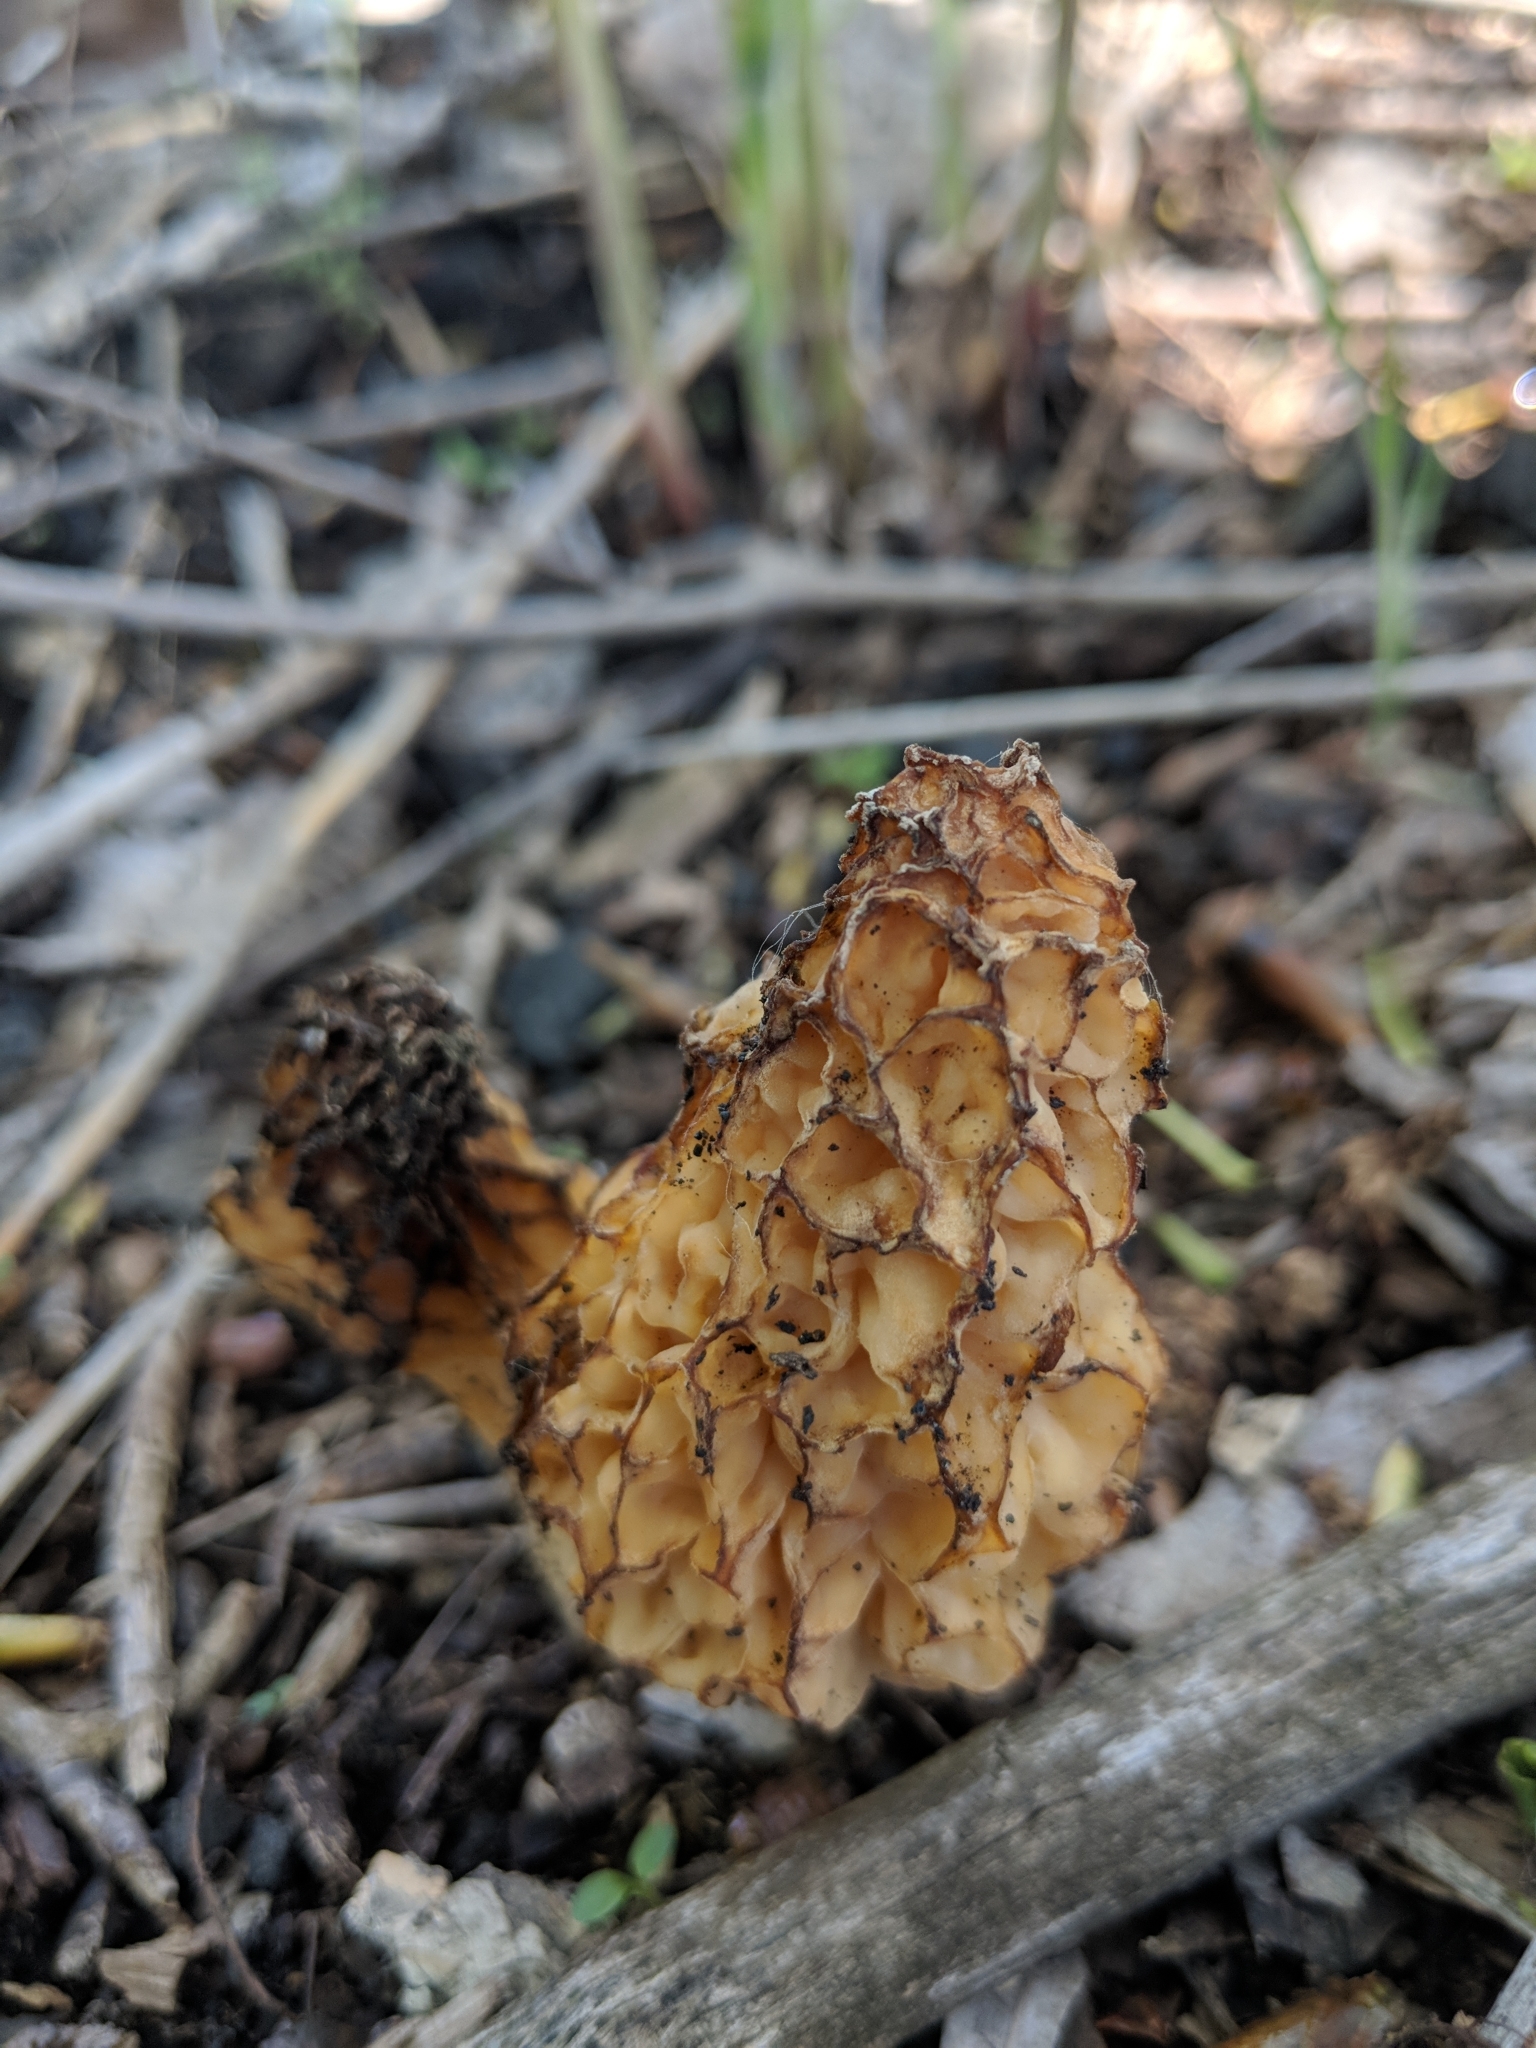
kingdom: Fungi
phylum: Ascomycota
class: Pezizomycetes
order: Pezizales
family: Morchellaceae
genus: Morchella
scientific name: Morchella americana
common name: White morel
